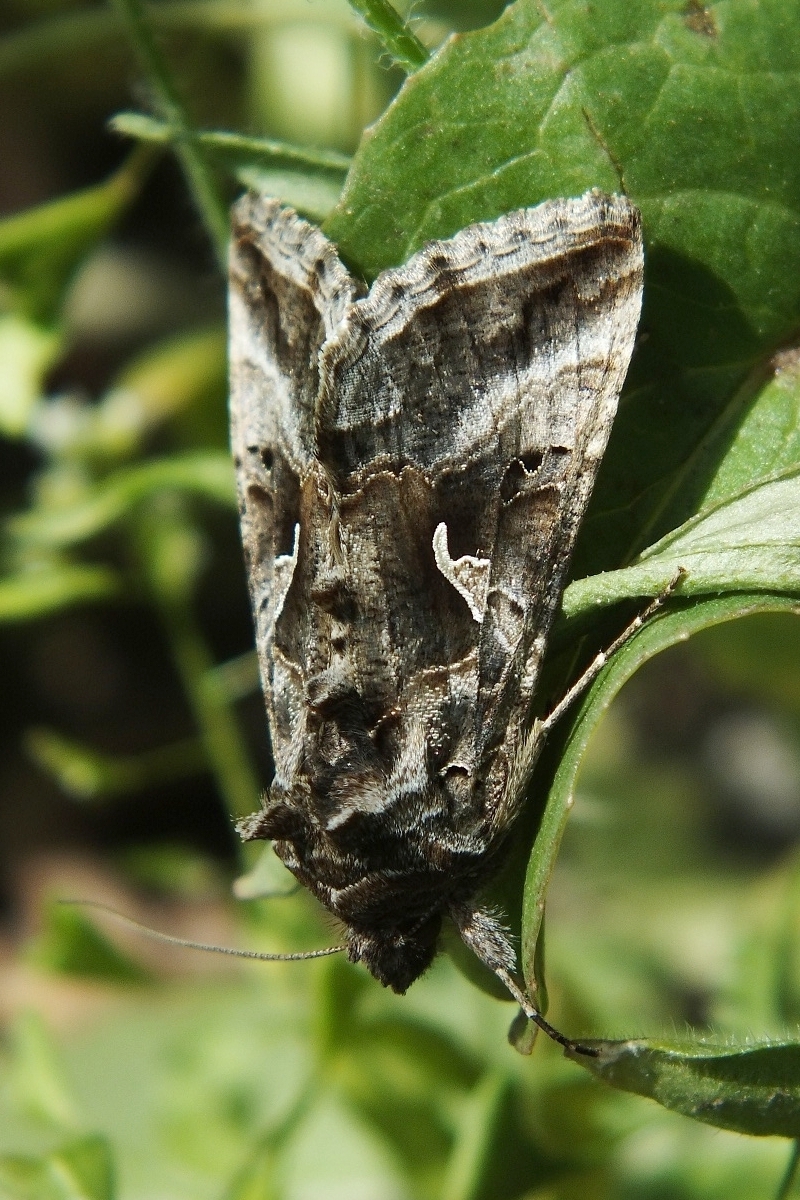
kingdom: Animalia
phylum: Arthropoda
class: Insecta
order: Lepidoptera
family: Noctuidae
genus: Autographa
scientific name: Autographa gamma
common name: Silver y
